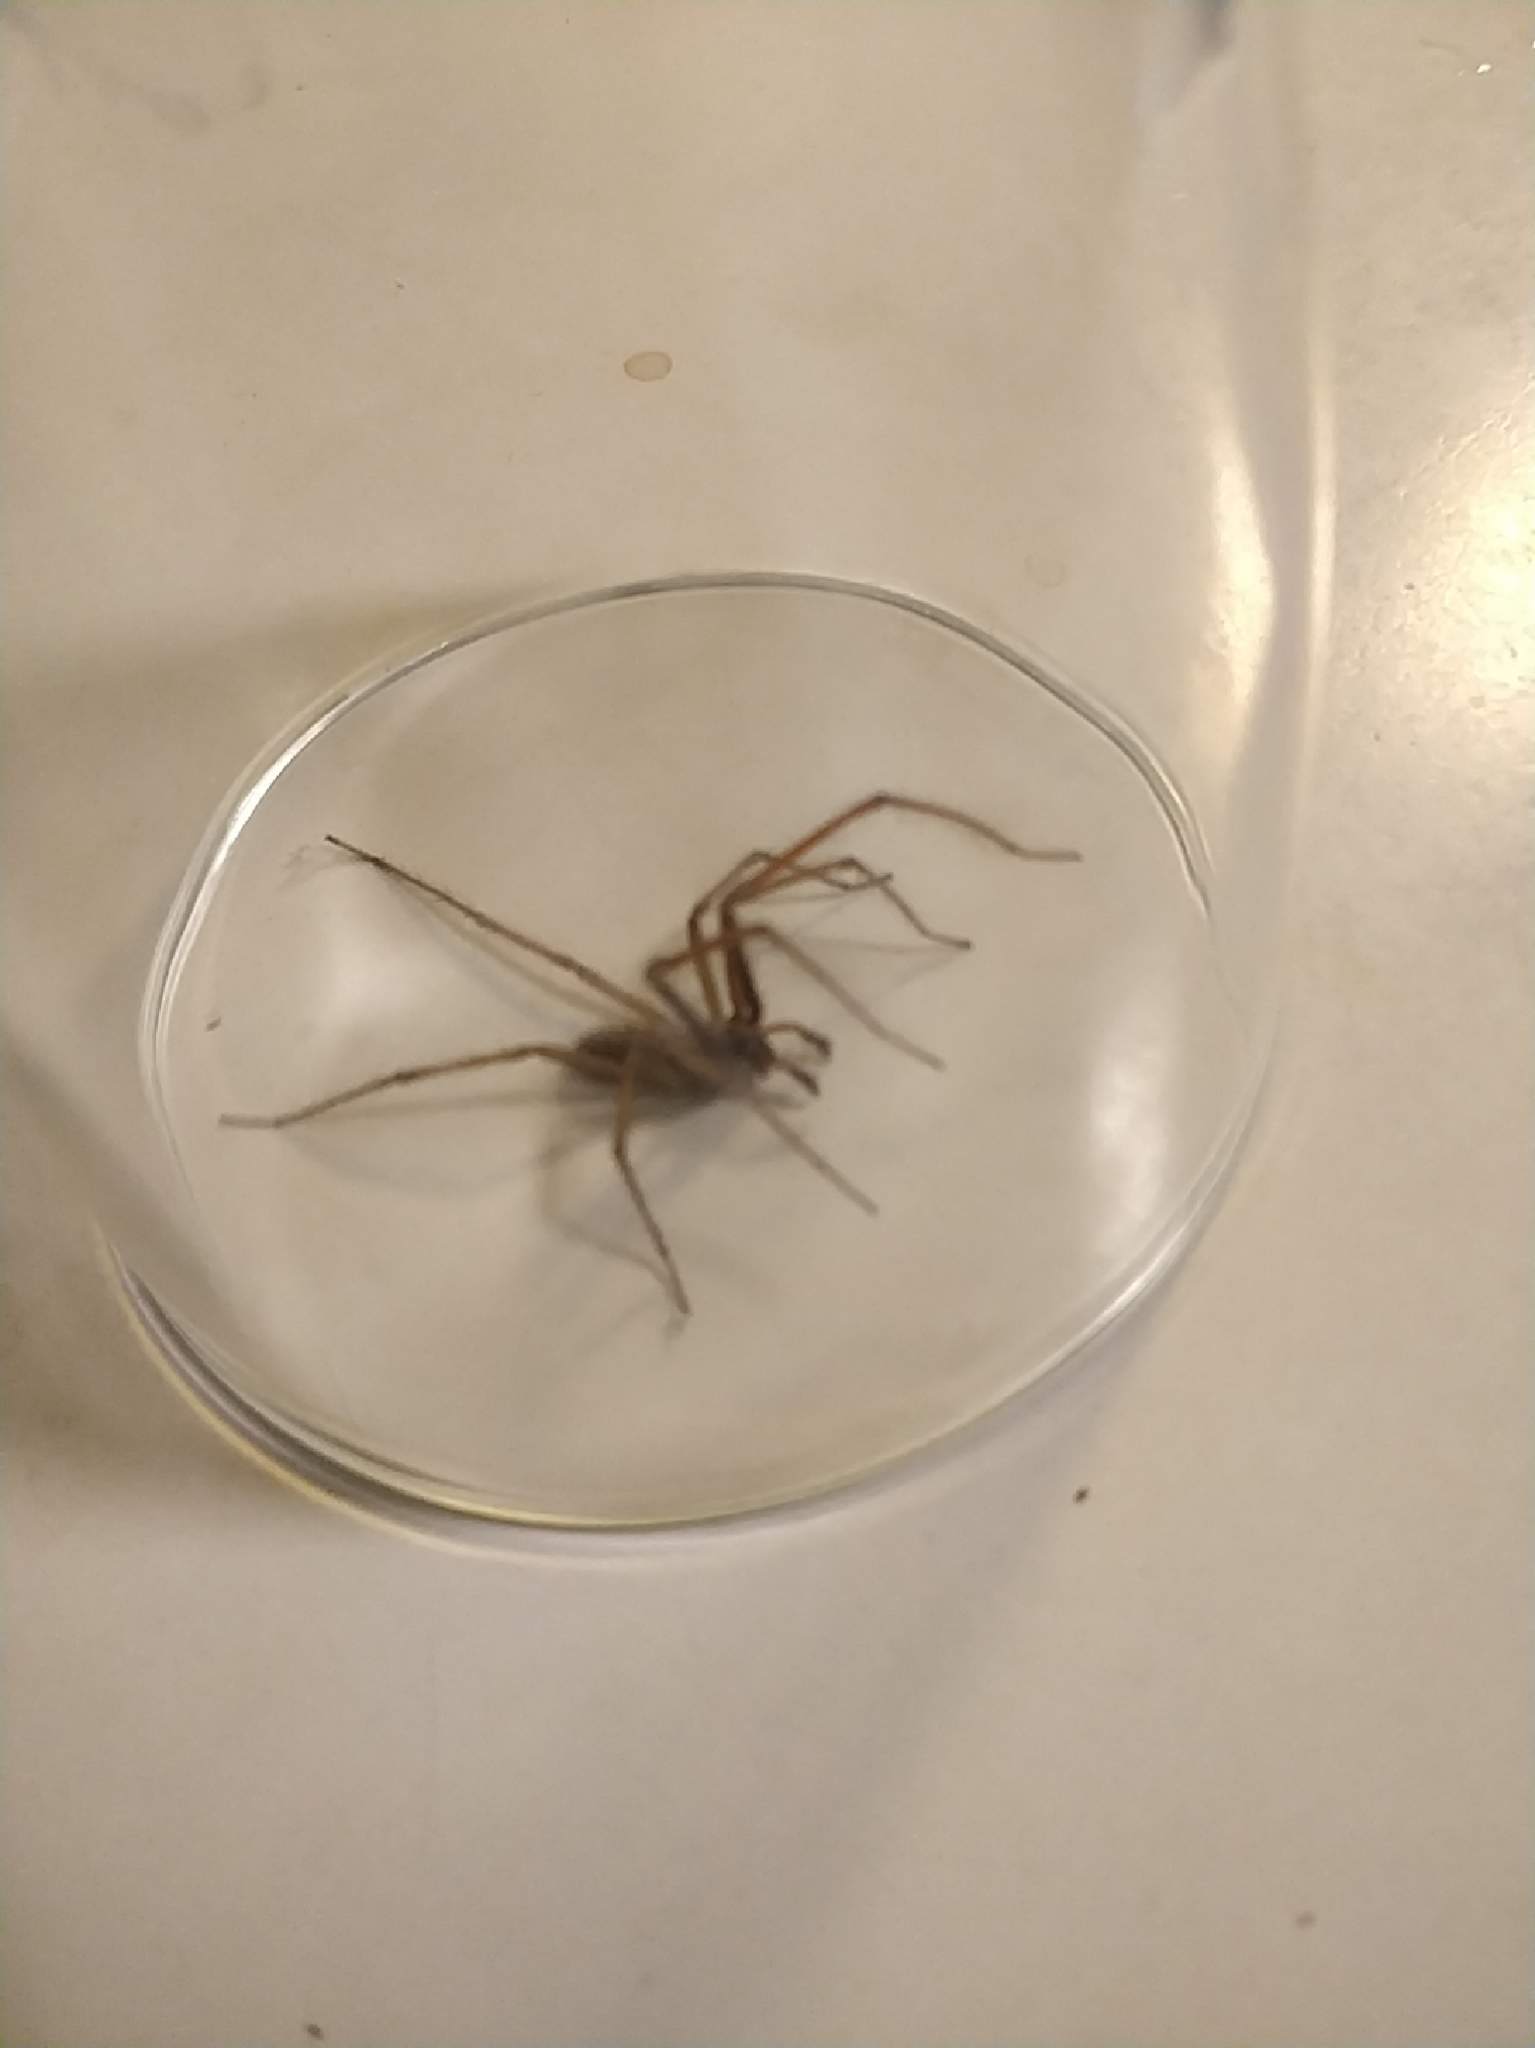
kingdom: Animalia
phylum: Arthropoda
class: Arachnida
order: Araneae
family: Agelenidae
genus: Eratigena
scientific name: Eratigena atrica
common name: Giant house spider
